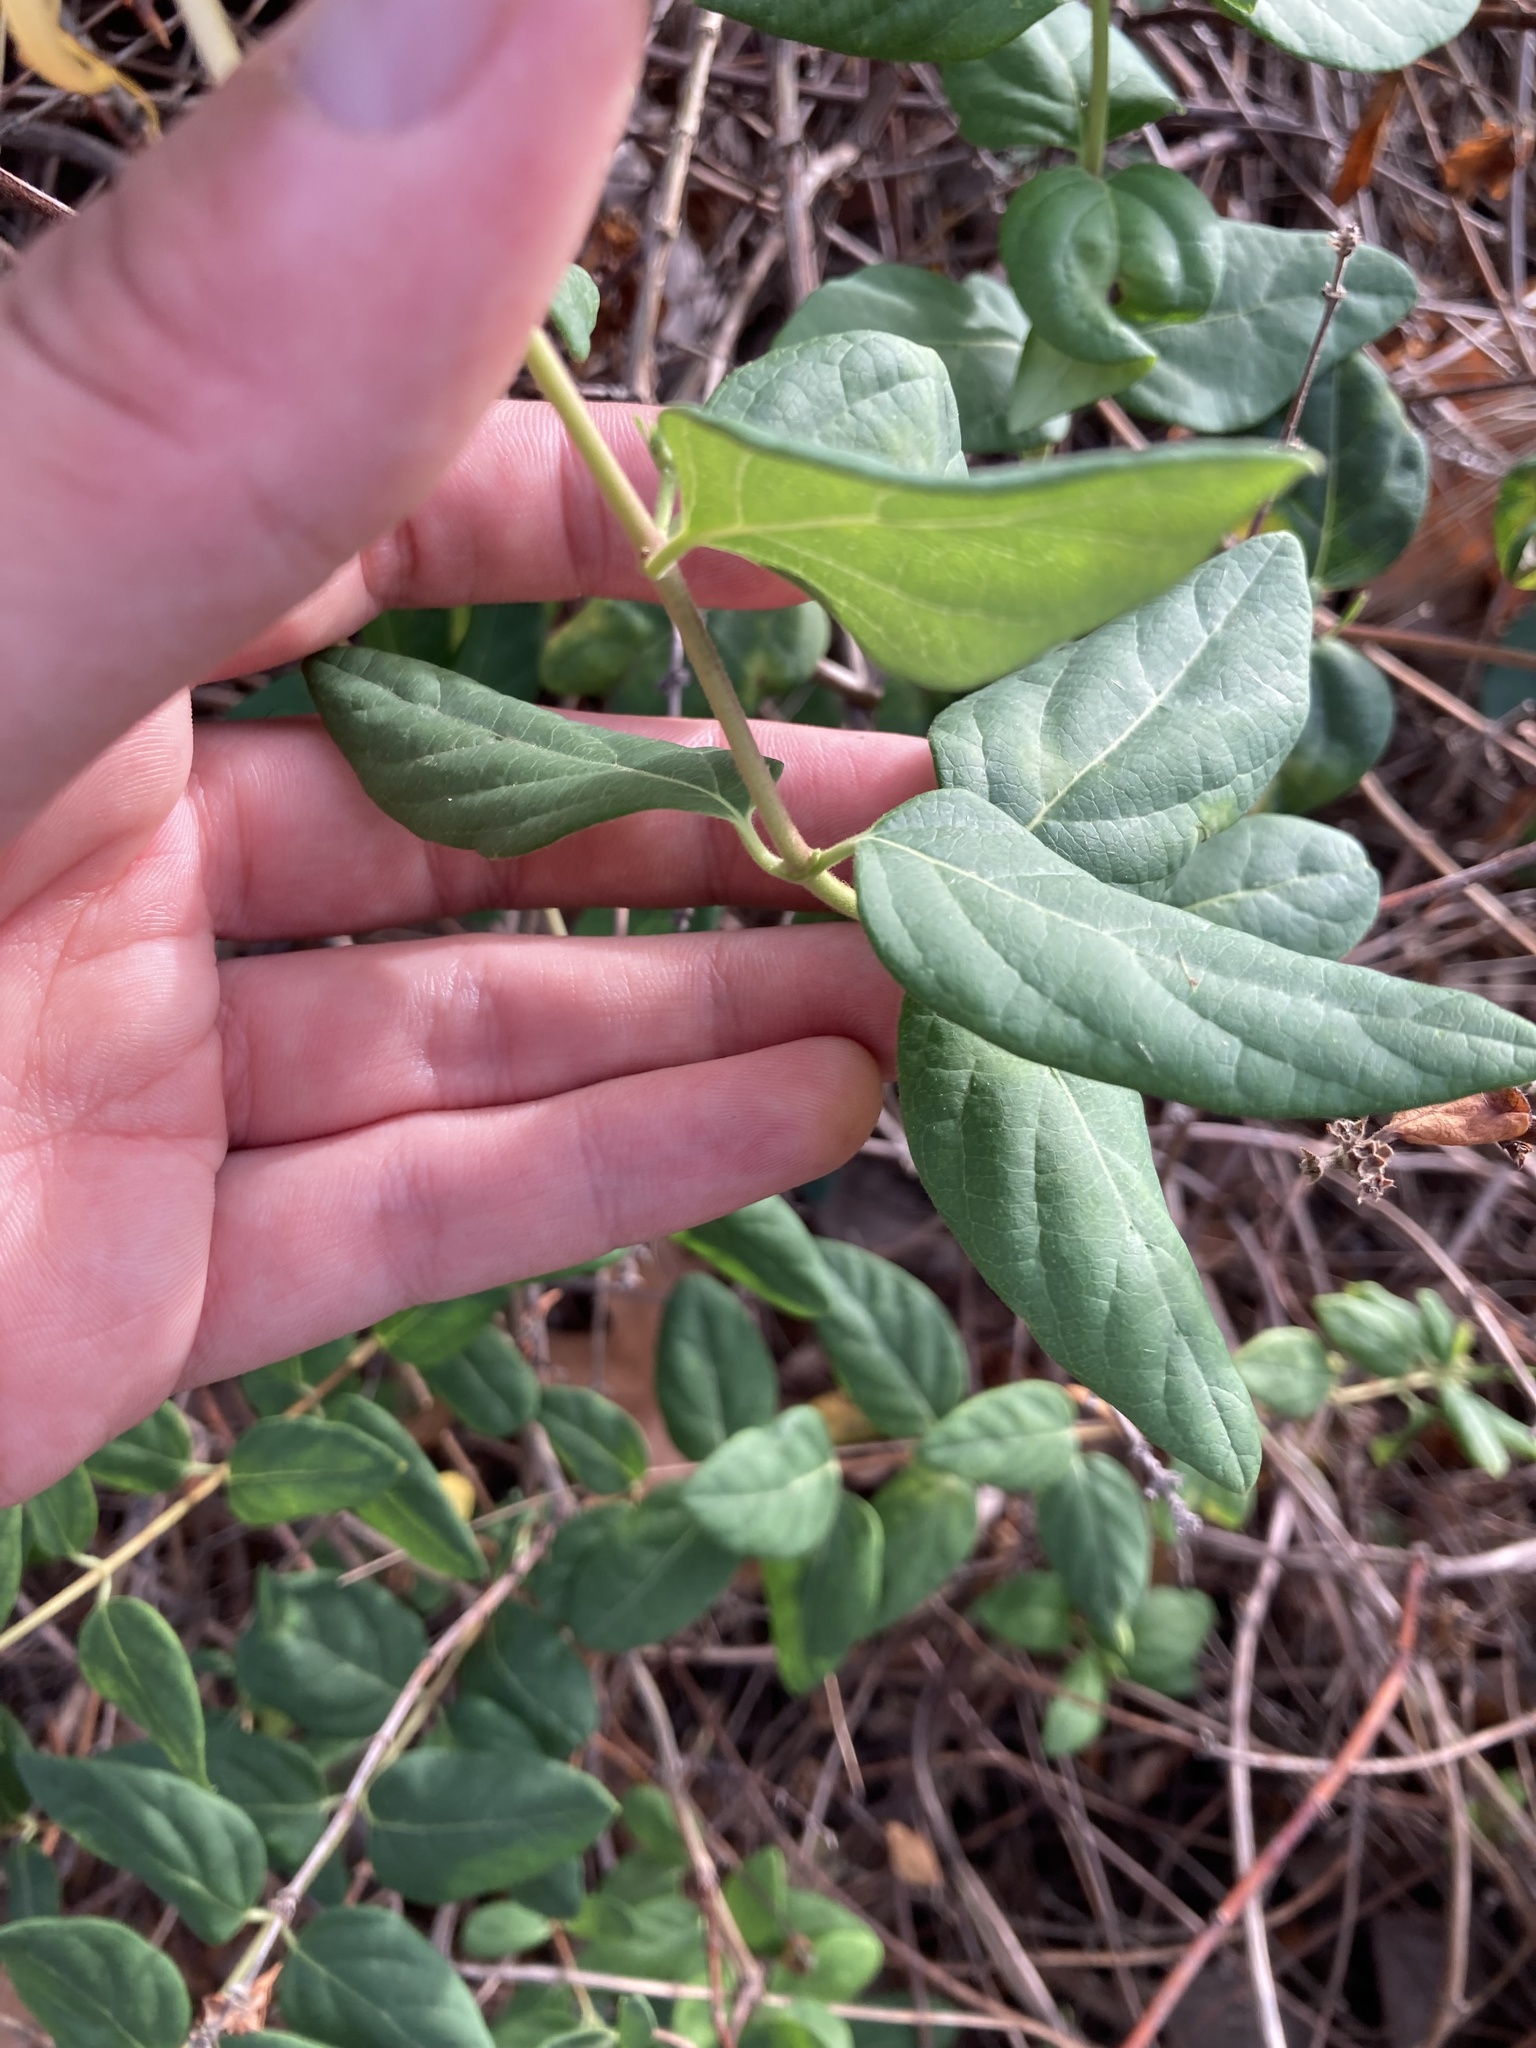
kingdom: Plantae
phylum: Tracheophyta
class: Magnoliopsida
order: Dipsacales
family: Caprifoliaceae
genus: Lonicera
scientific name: Lonicera japonica
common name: Japanese honeysuckle
